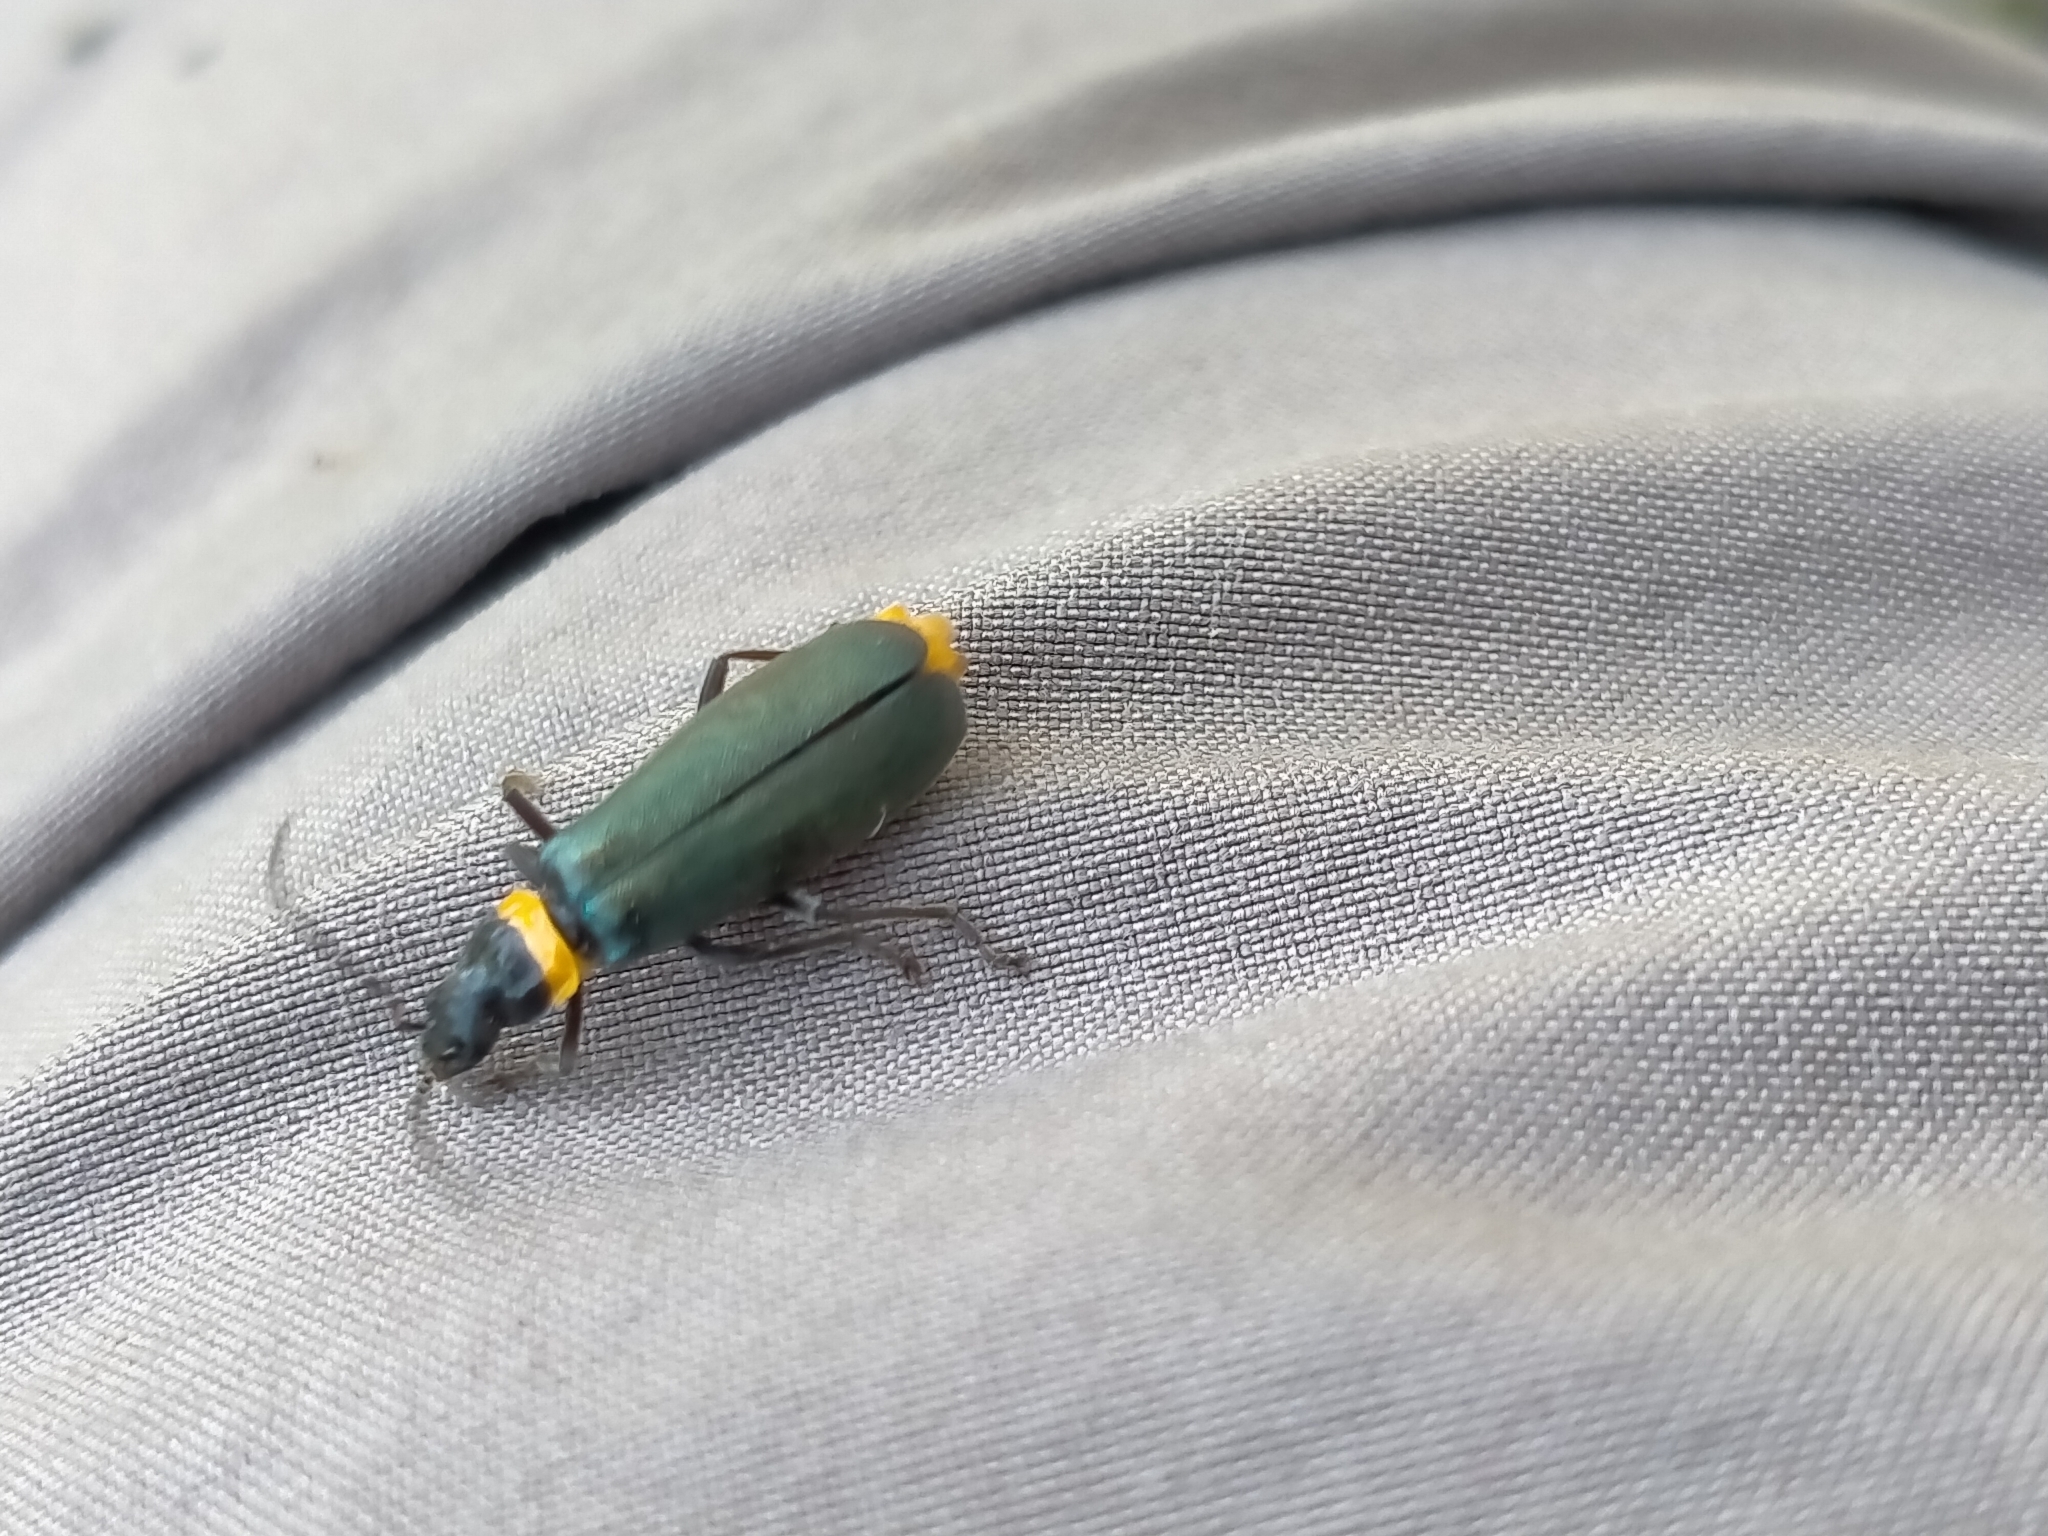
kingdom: Animalia
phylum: Arthropoda
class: Insecta
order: Coleoptera
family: Cantharidae
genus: Chauliognathus
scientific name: Chauliognathus
